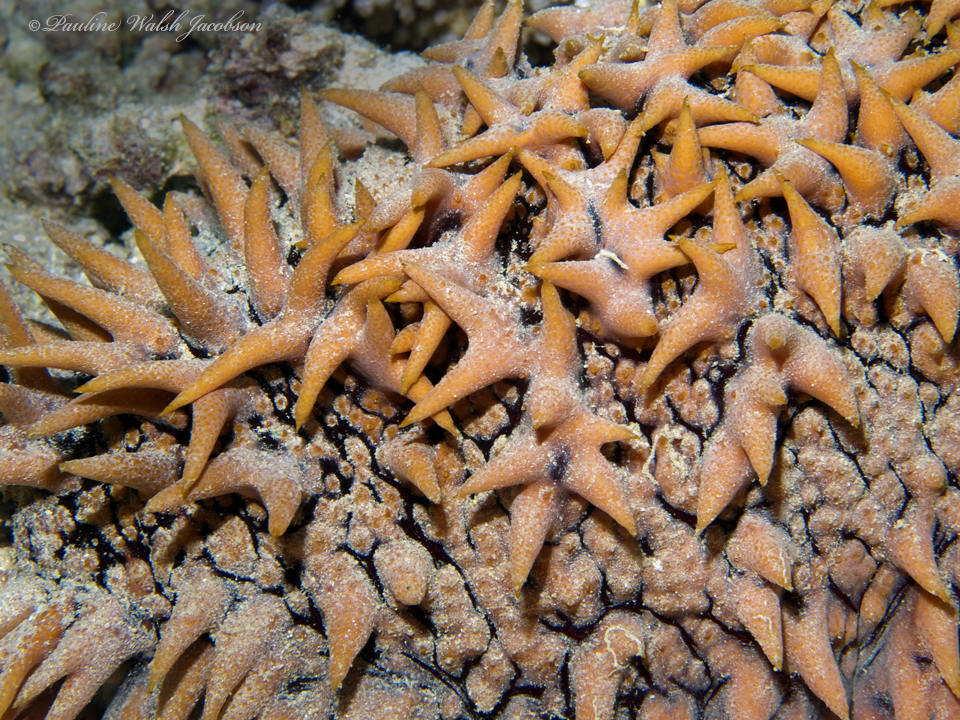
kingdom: Animalia
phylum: Echinodermata
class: Holothuroidea
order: Synallactida
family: Stichopodidae
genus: Thelenota
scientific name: Thelenota ananas
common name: Prickly redfish
